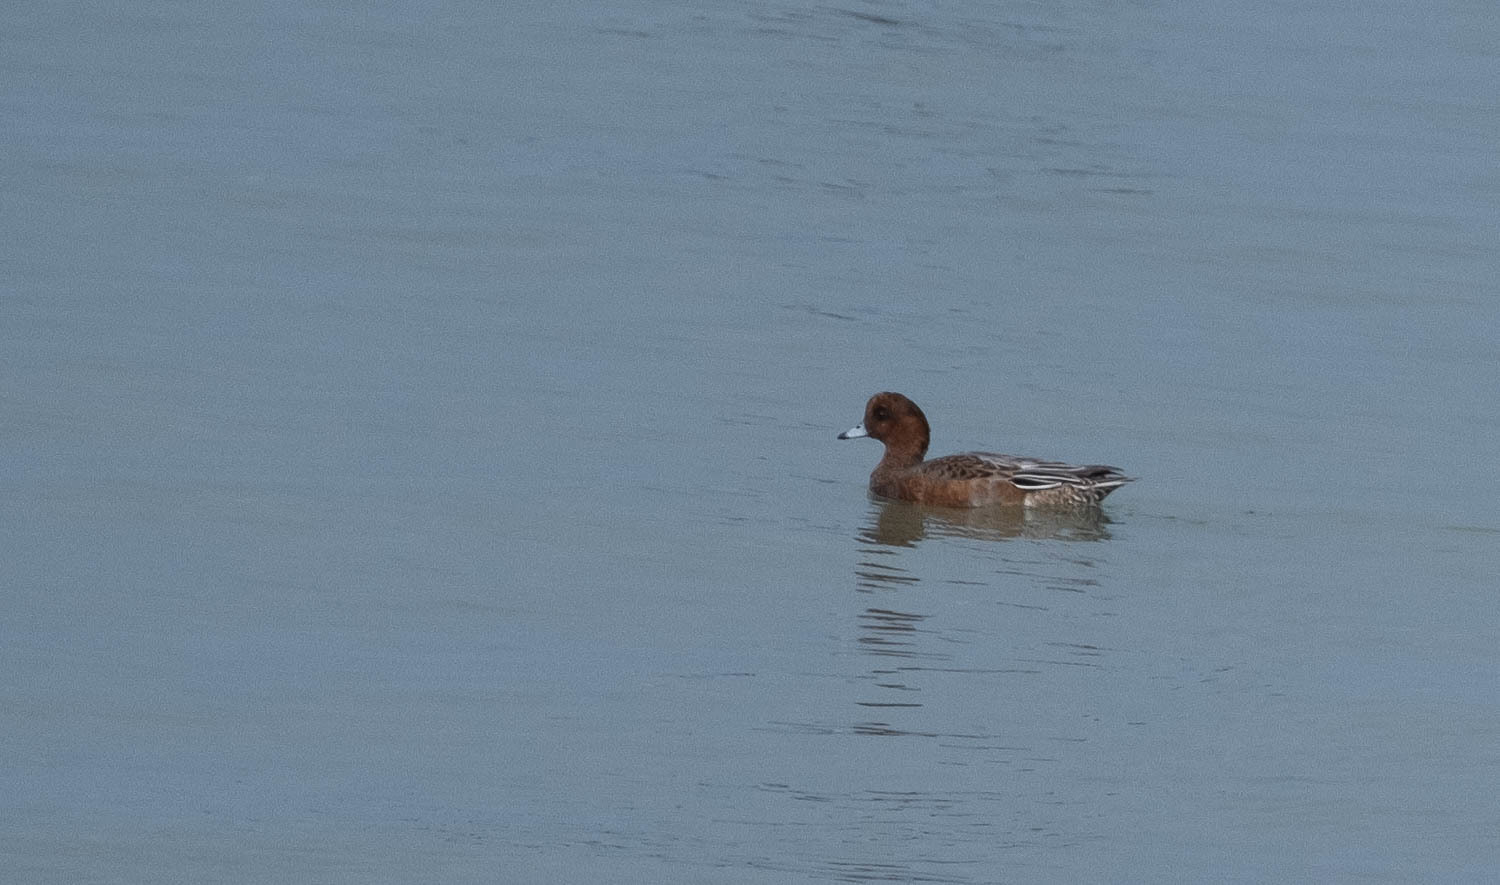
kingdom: Animalia
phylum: Chordata
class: Aves
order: Anseriformes
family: Anatidae
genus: Mareca
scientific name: Mareca penelope
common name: Eurasian wigeon
